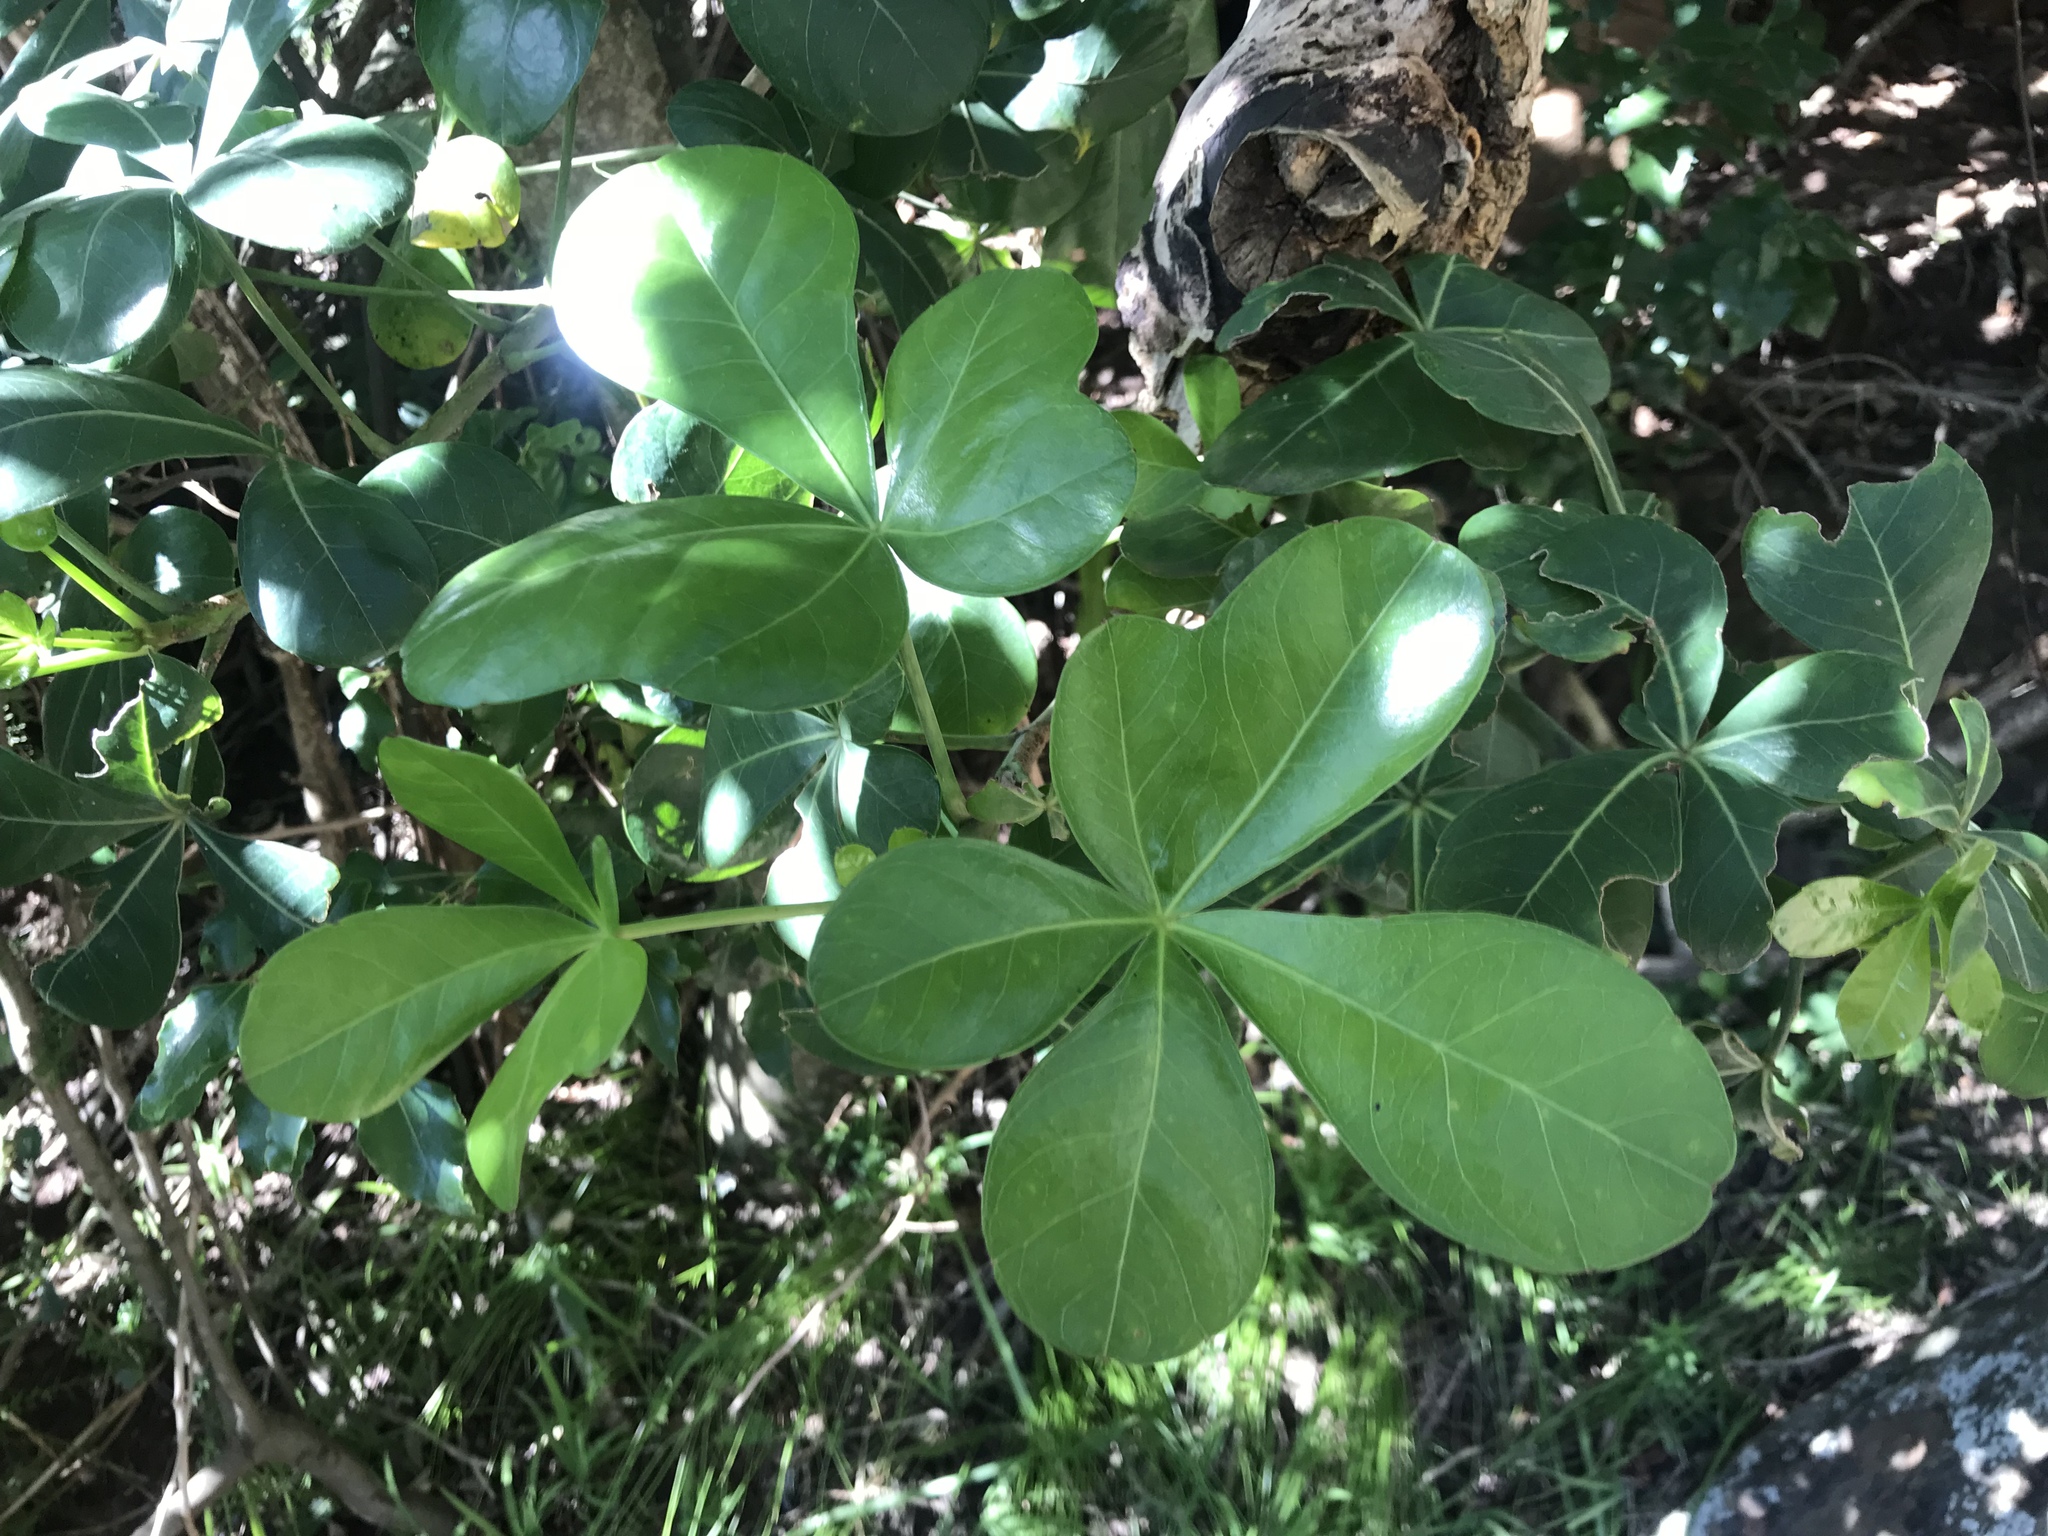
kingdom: Plantae
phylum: Tracheophyta
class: Magnoliopsida
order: Apiales
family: Araliaceae
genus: Cussonia
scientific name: Cussonia thyrsiflora
